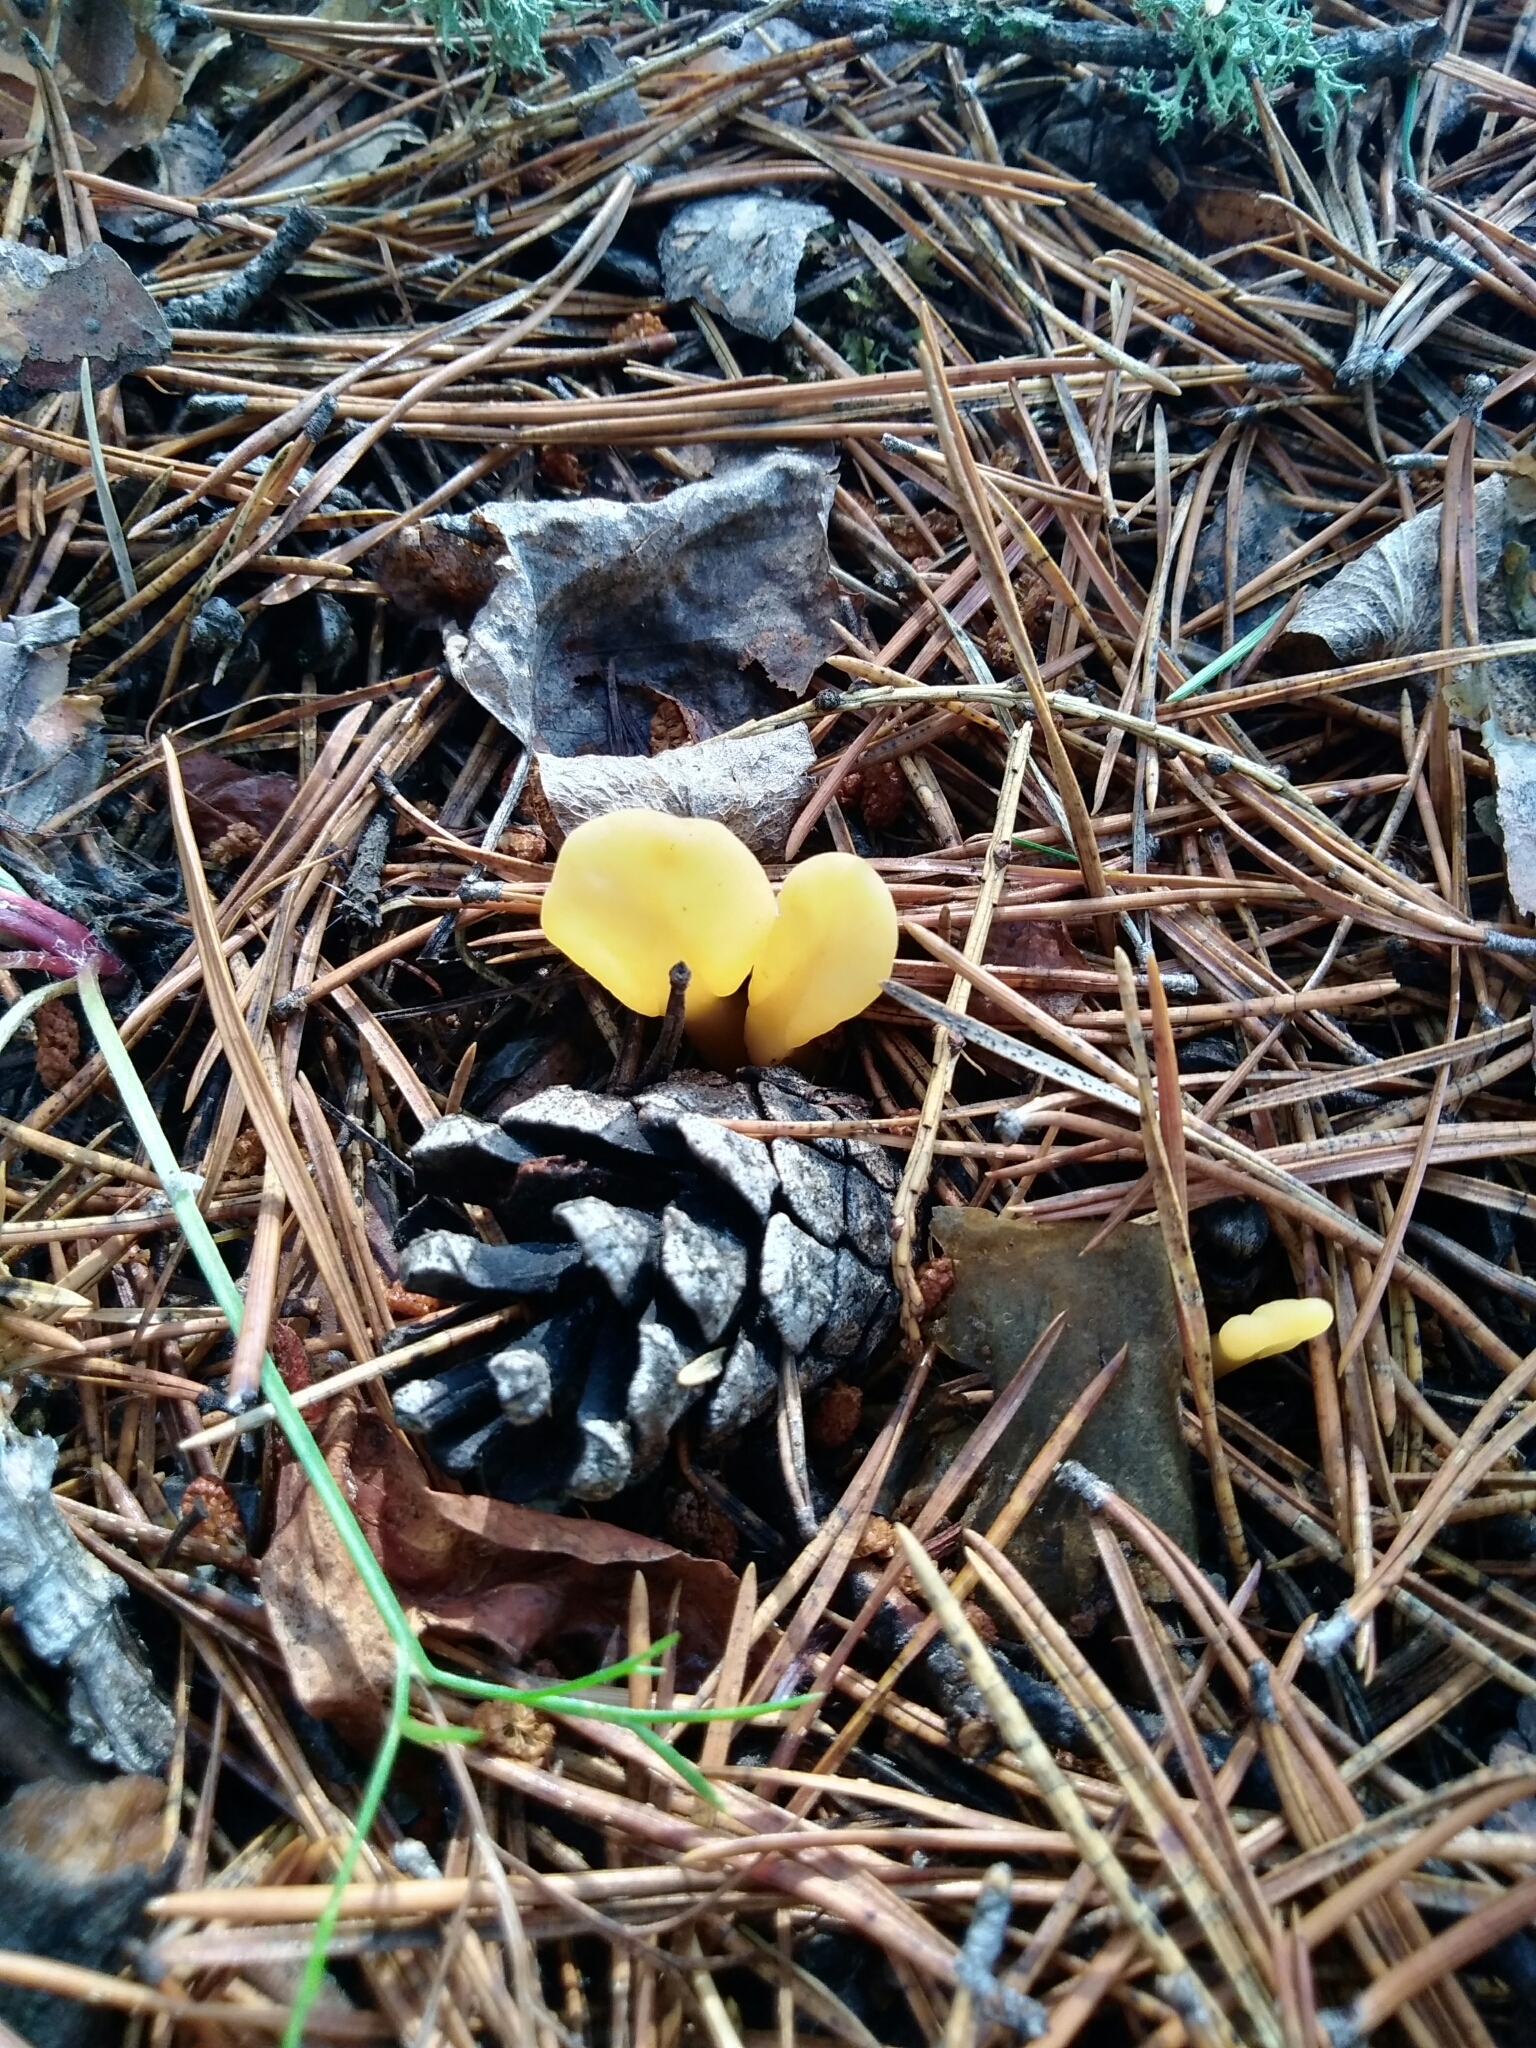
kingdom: Fungi
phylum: Ascomycota
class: Leotiomycetes
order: Rhytismatales
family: Cudoniaceae
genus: Spathularia
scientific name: Spathularia flavida
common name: Yellow fan
